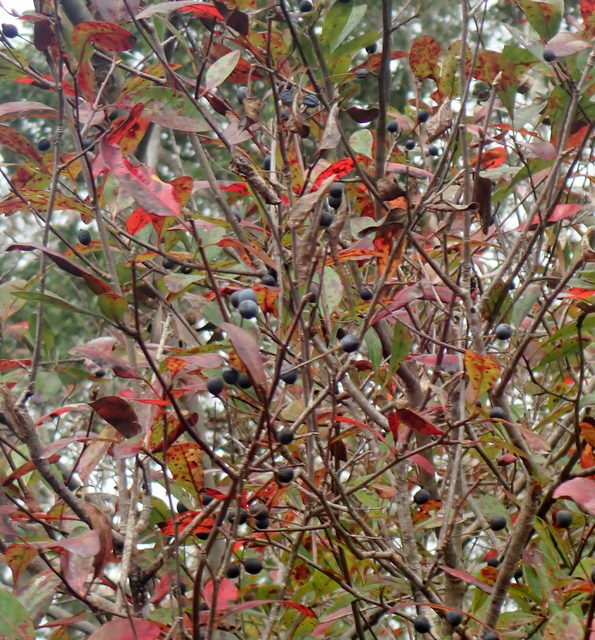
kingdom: Plantae
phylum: Tracheophyta
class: Magnoliopsida
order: Cornales
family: Nyssaceae
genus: Nyssa
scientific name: Nyssa biflora
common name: Swamp blackgum
